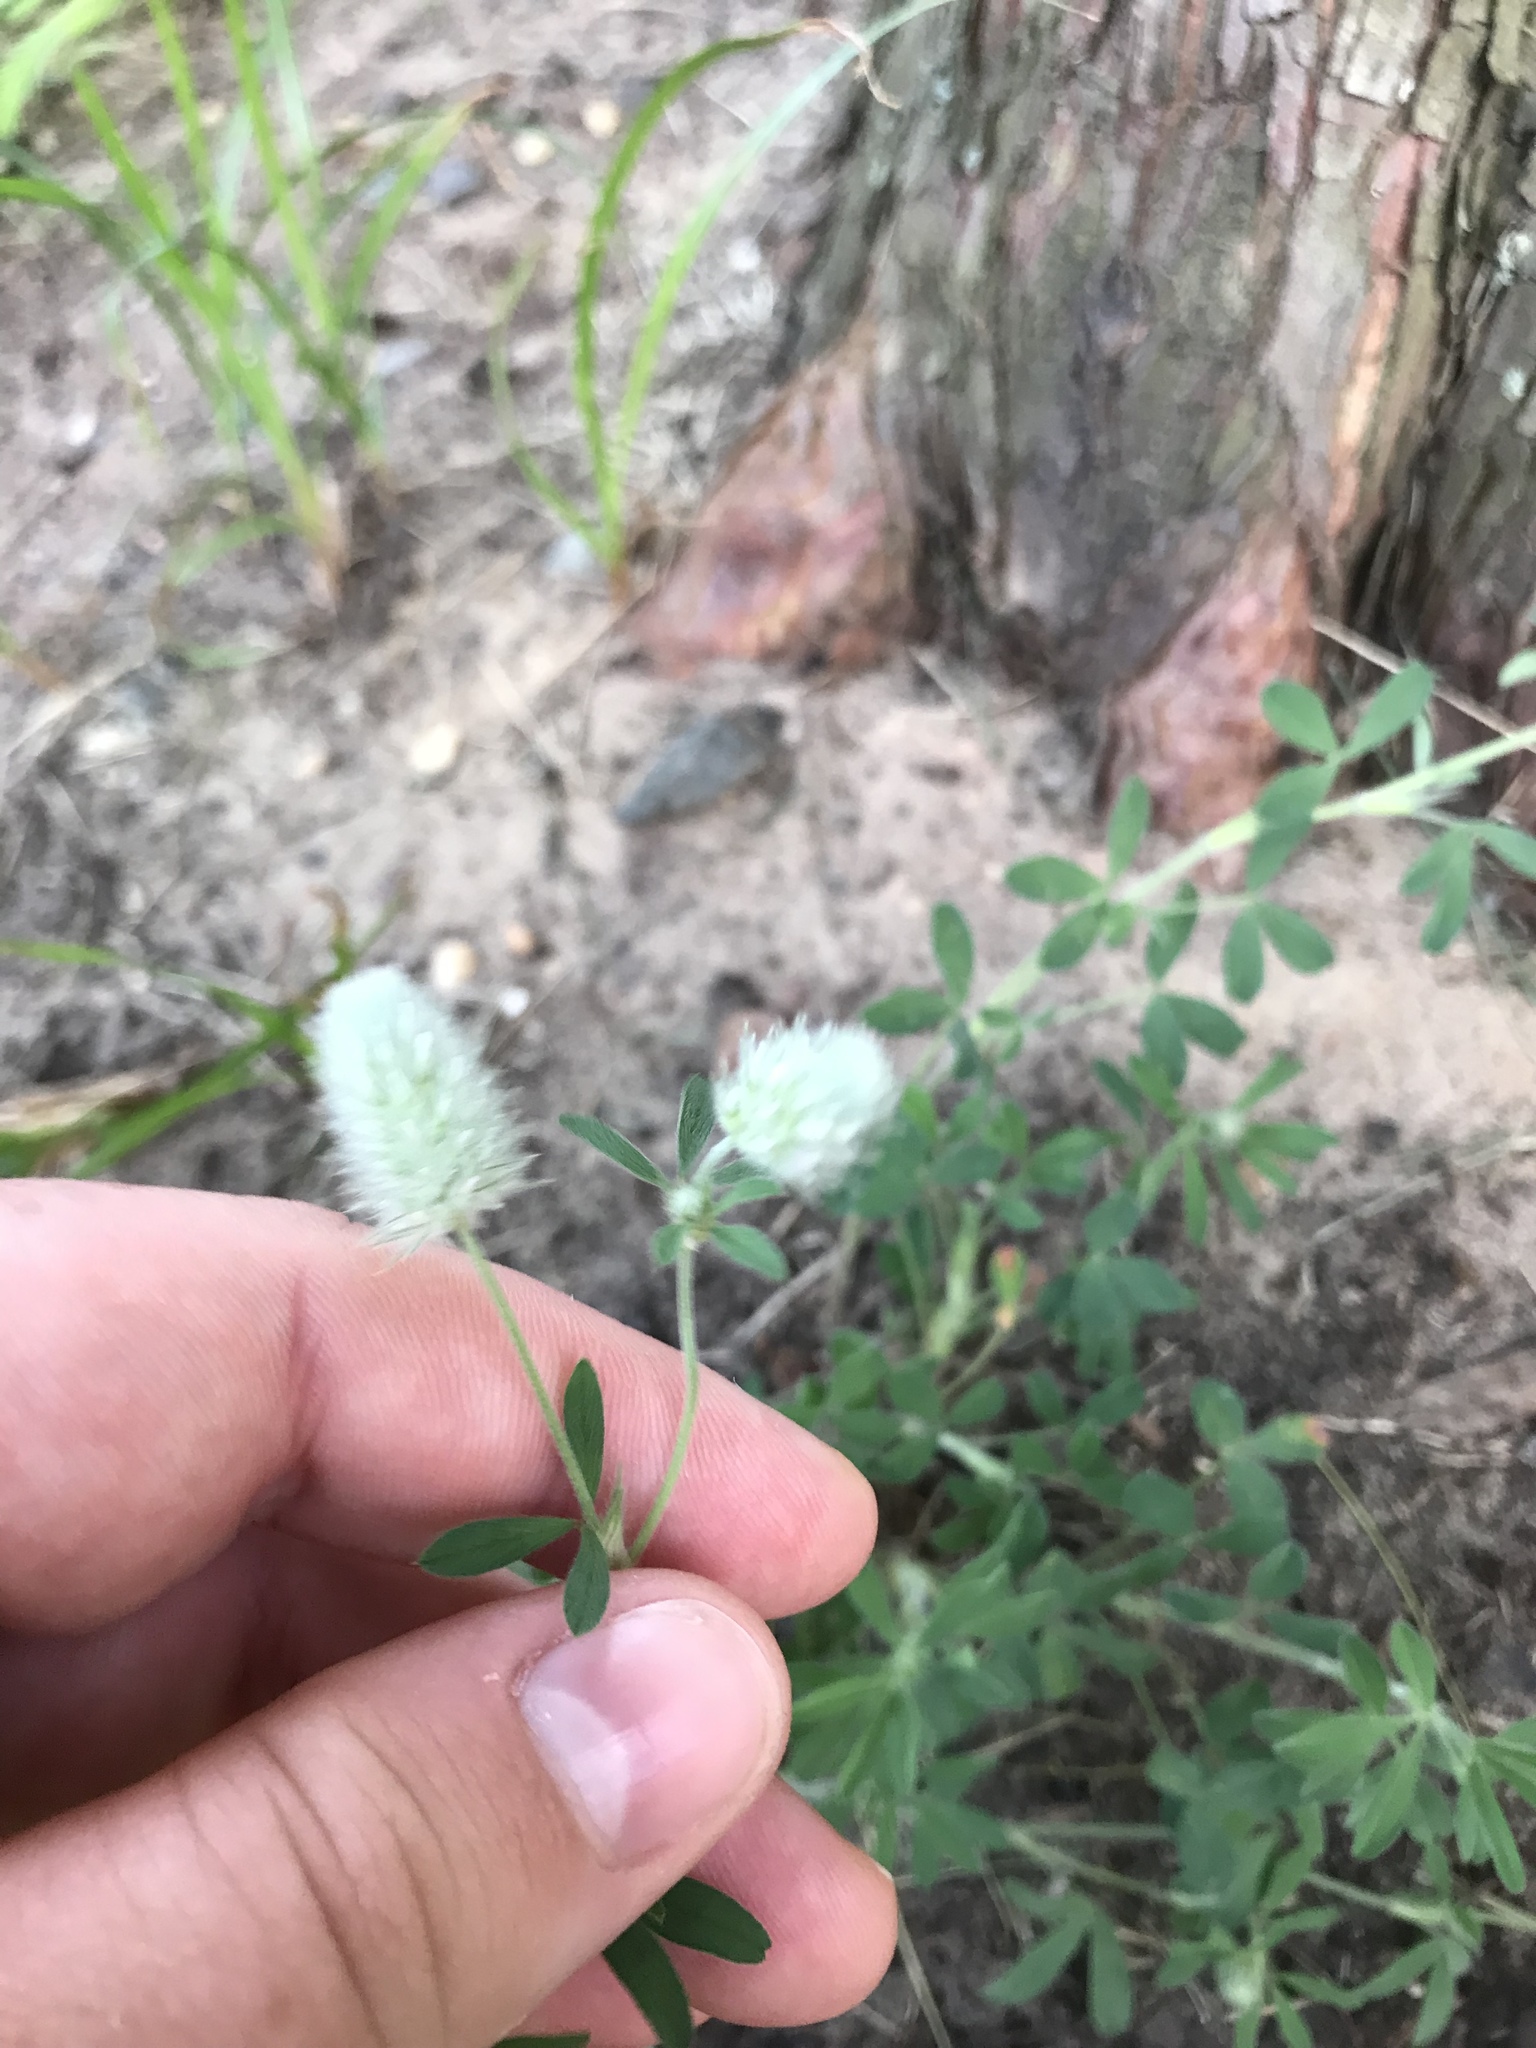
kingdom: Plantae
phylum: Tracheophyta
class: Magnoliopsida
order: Fabales
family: Fabaceae
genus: Trifolium
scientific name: Trifolium arvense
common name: Hare's-foot clover
